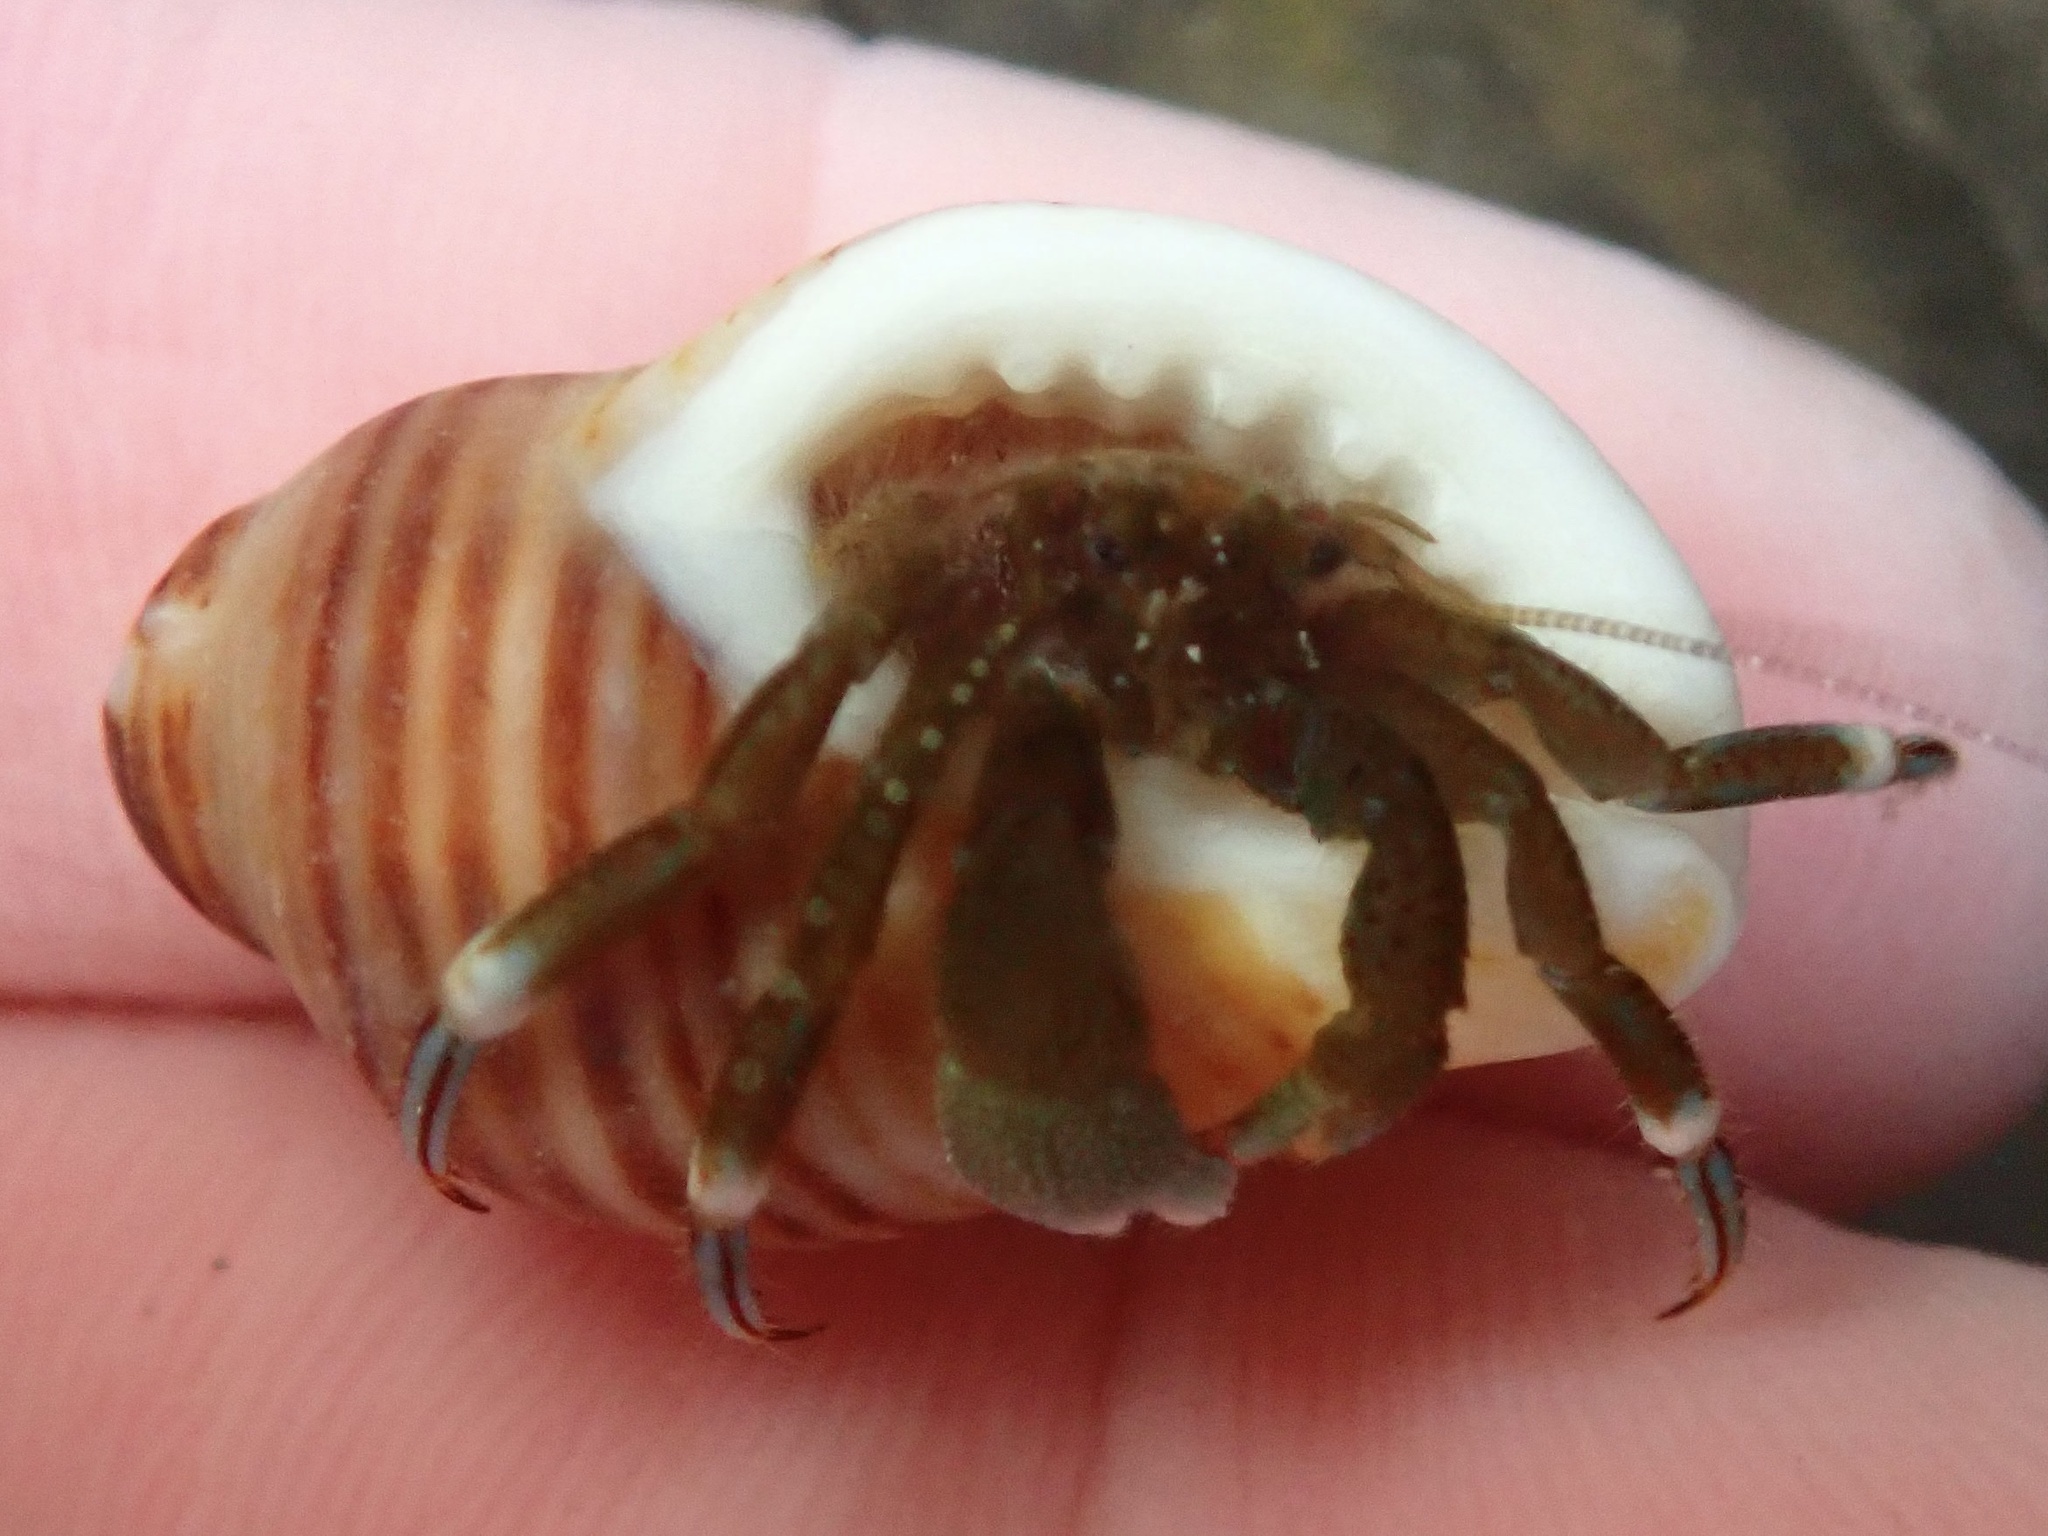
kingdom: Animalia
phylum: Arthropoda
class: Malacostraca
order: Decapoda
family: Paguridae
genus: Pagurus
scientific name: Pagurus venturensis
